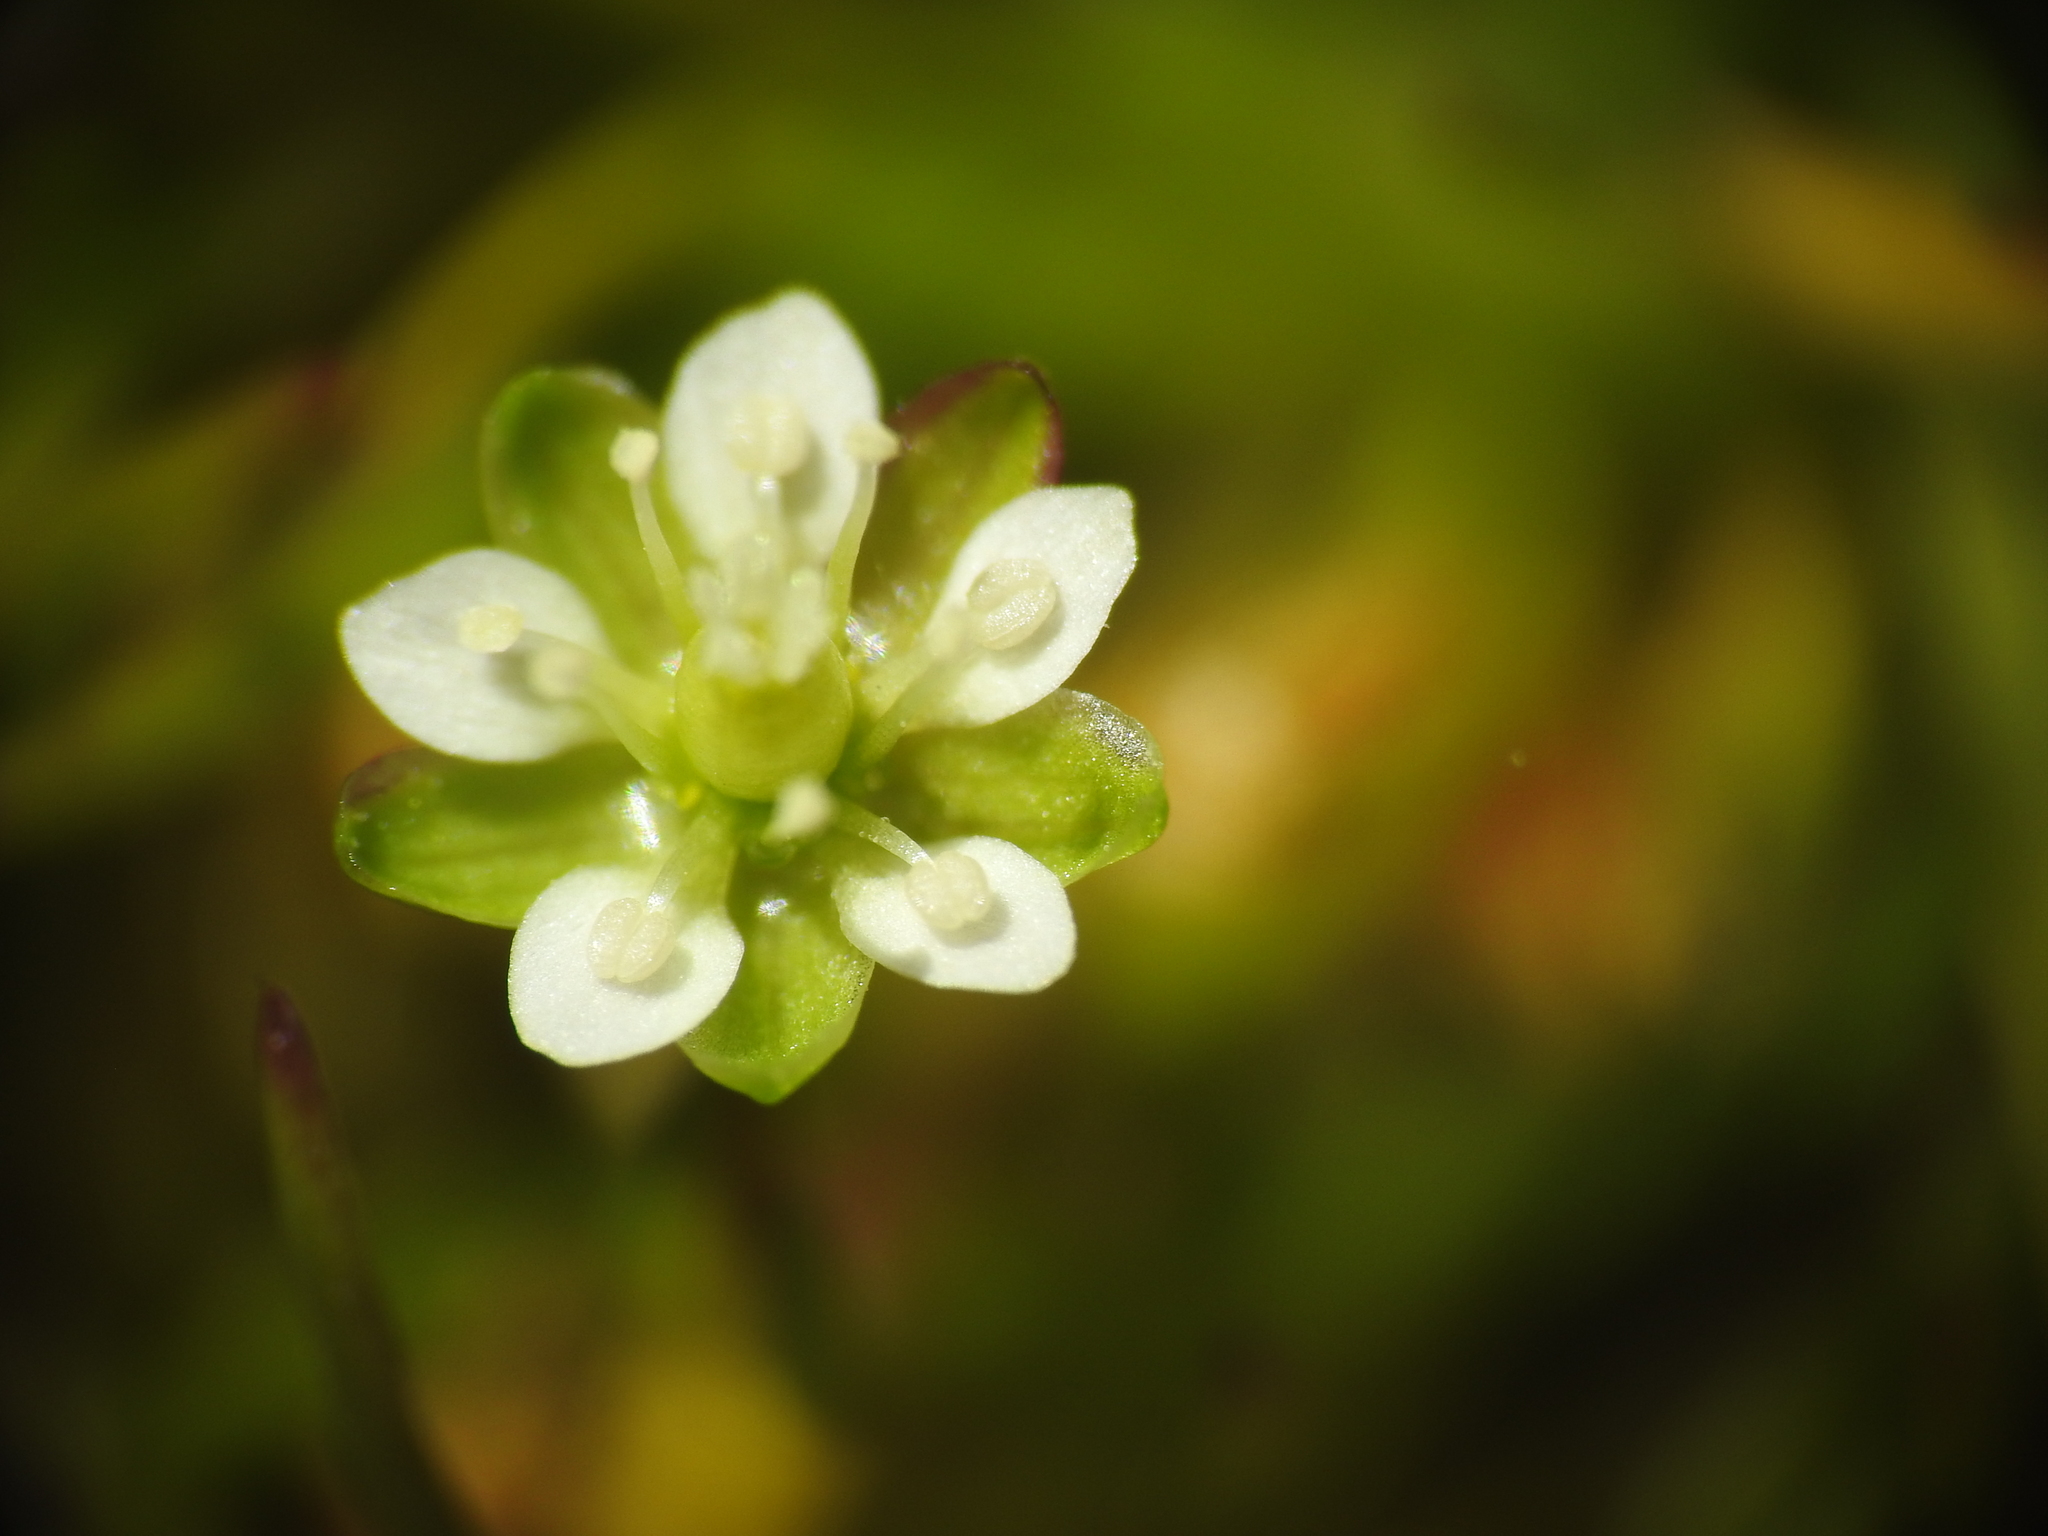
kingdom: Plantae
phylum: Tracheophyta
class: Magnoliopsida
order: Caryophyllales
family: Caryophyllaceae
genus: Sagina
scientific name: Sagina saginoides
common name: Alpine pearlwort
